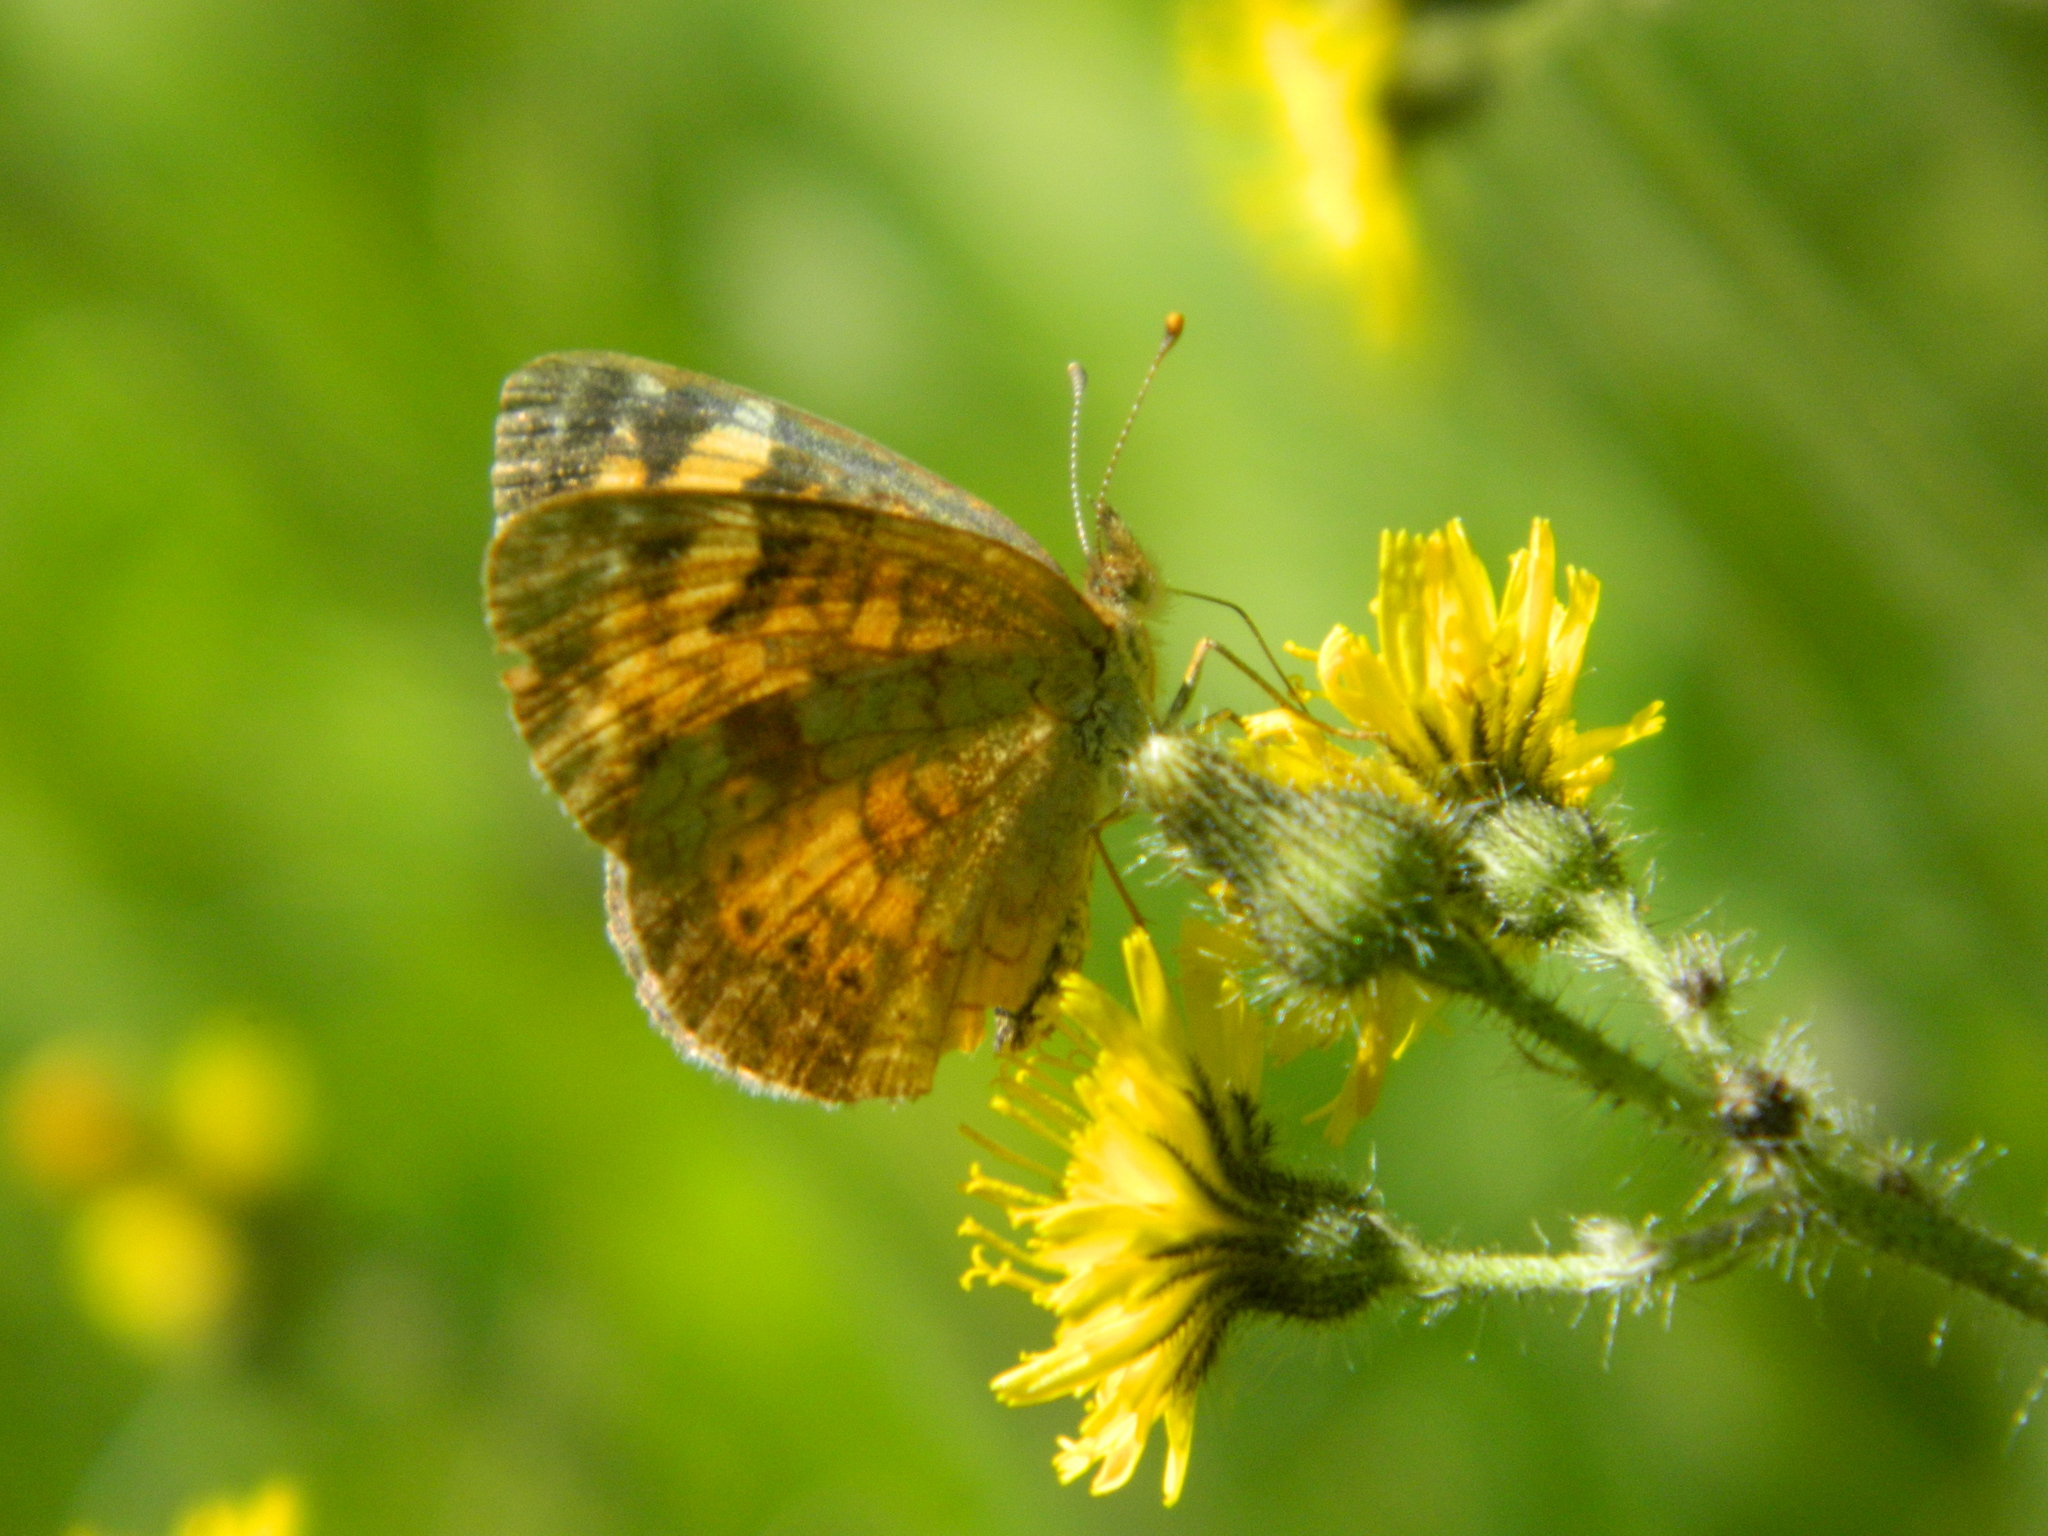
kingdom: Animalia
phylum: Arthropoda
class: Insecta
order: Lepidoptera
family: Nymphalidae
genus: Phyciodes
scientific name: Phyciodes tharos
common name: Pearl crescent
